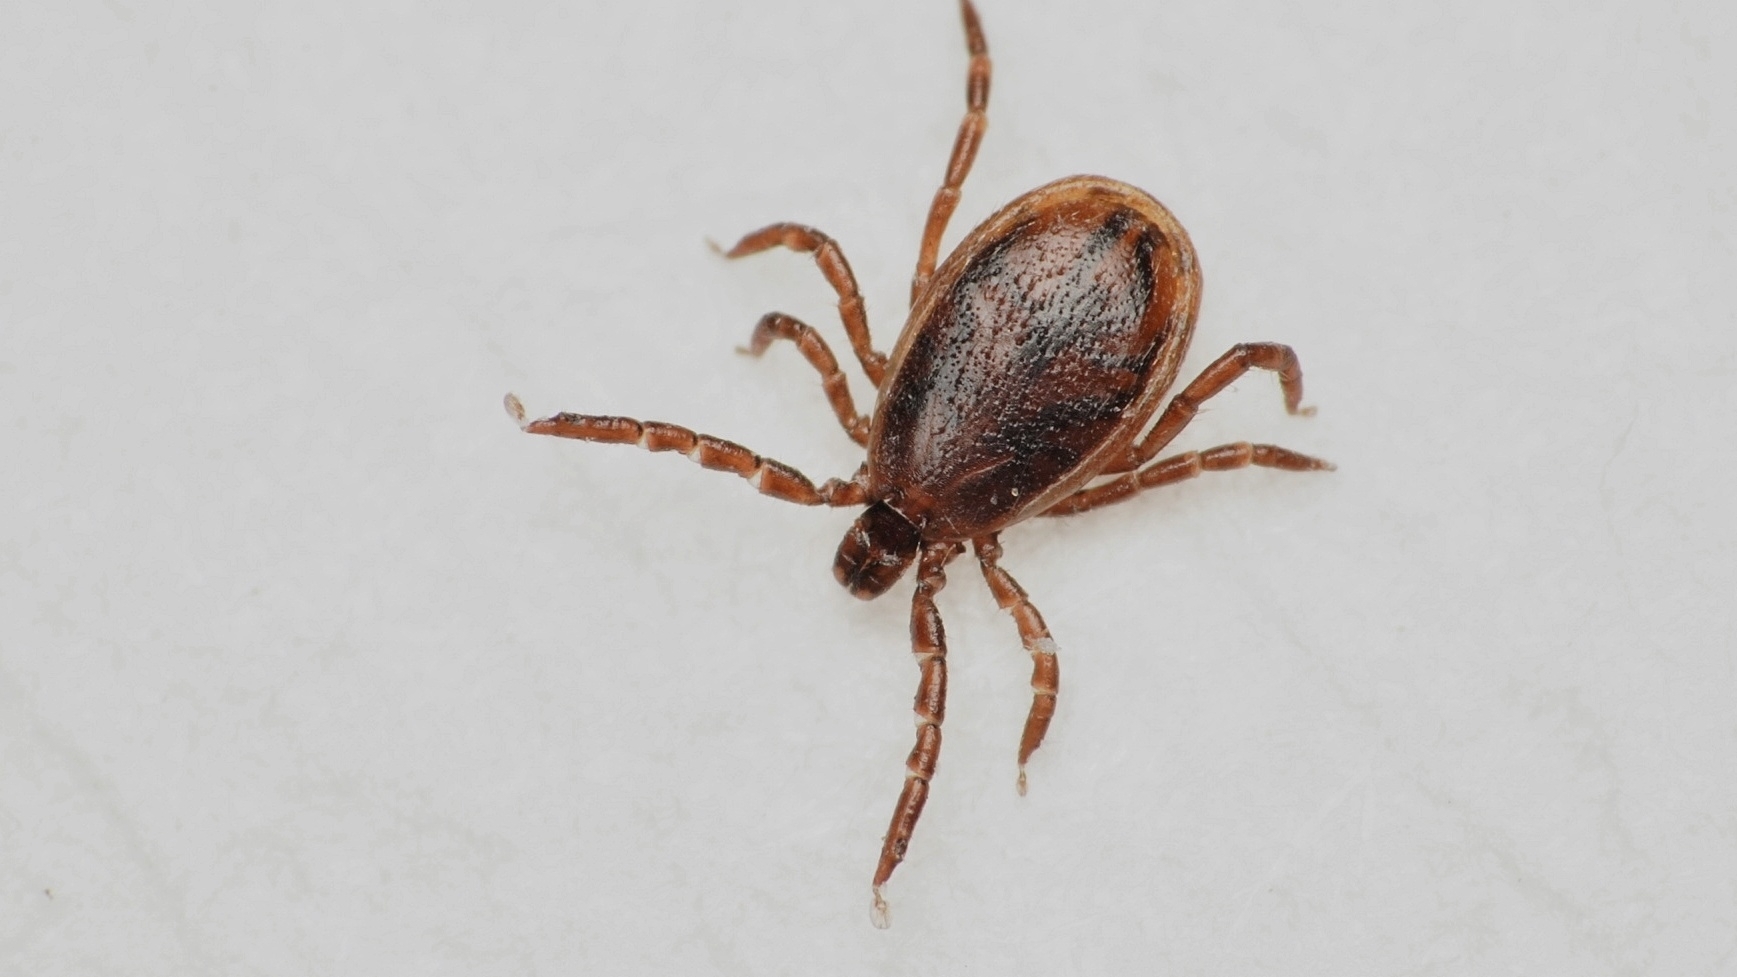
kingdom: Animalia
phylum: Arthropoda
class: Arachnida
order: Ixodida
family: Ixodidae
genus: Ixodes
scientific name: Ixodes scapularis
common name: Black legged tick
